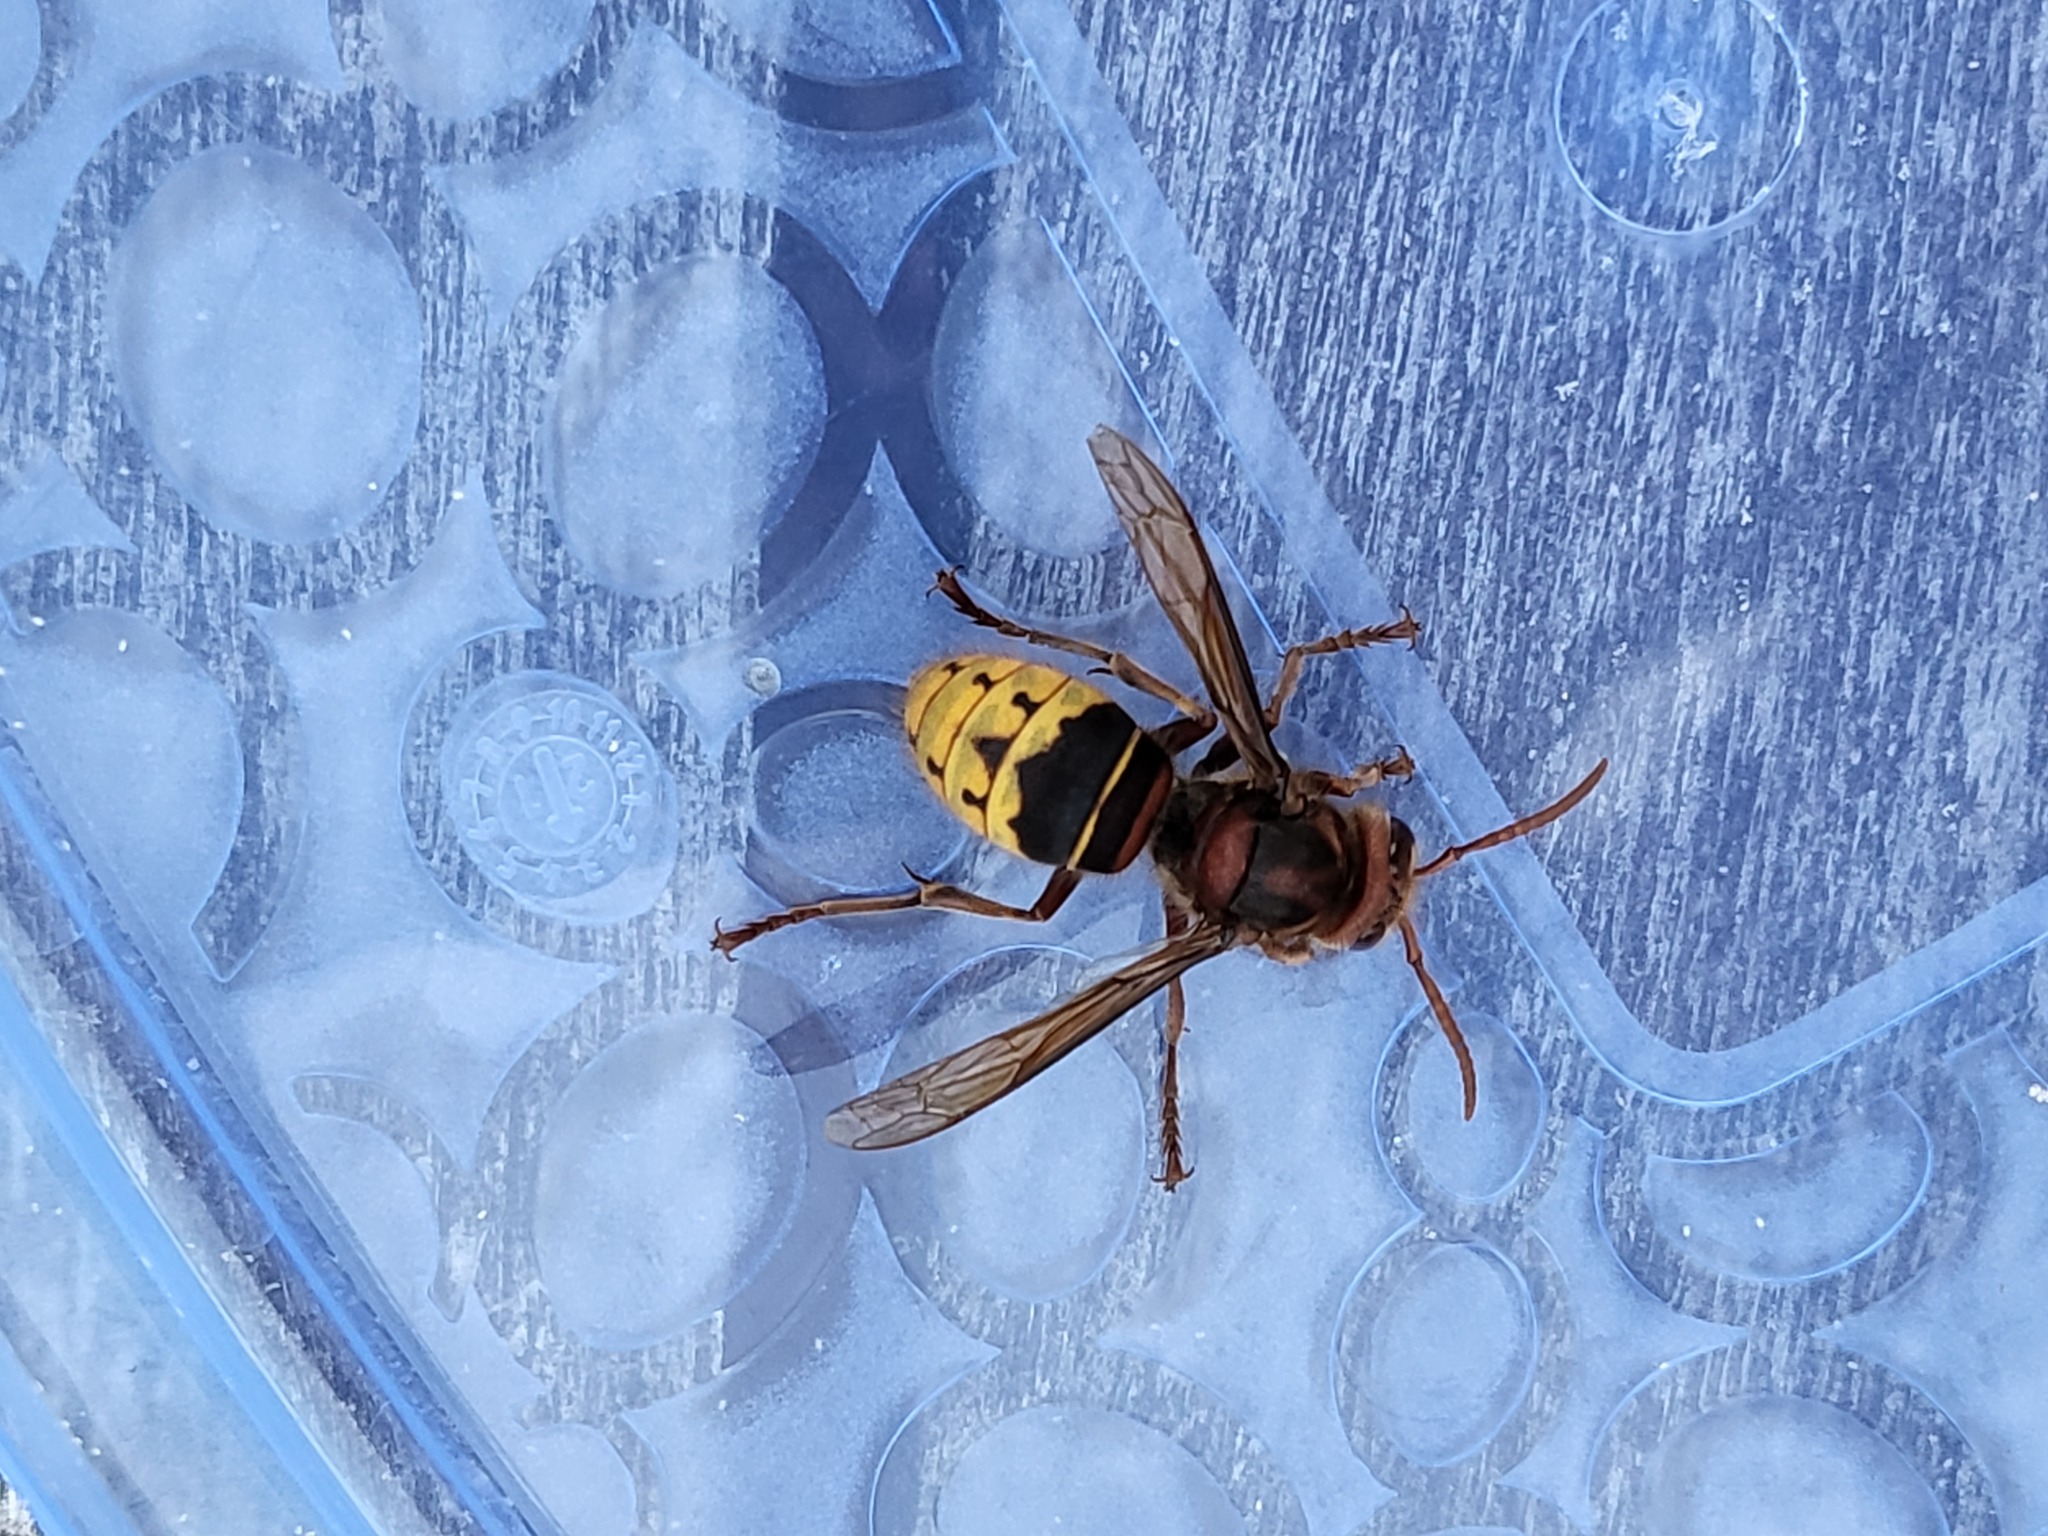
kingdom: Animalia
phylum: Arthropoda
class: Insecta
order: Hymenoptera
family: Vespidae
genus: Vespa
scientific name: Vespa crabro
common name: Hornet
